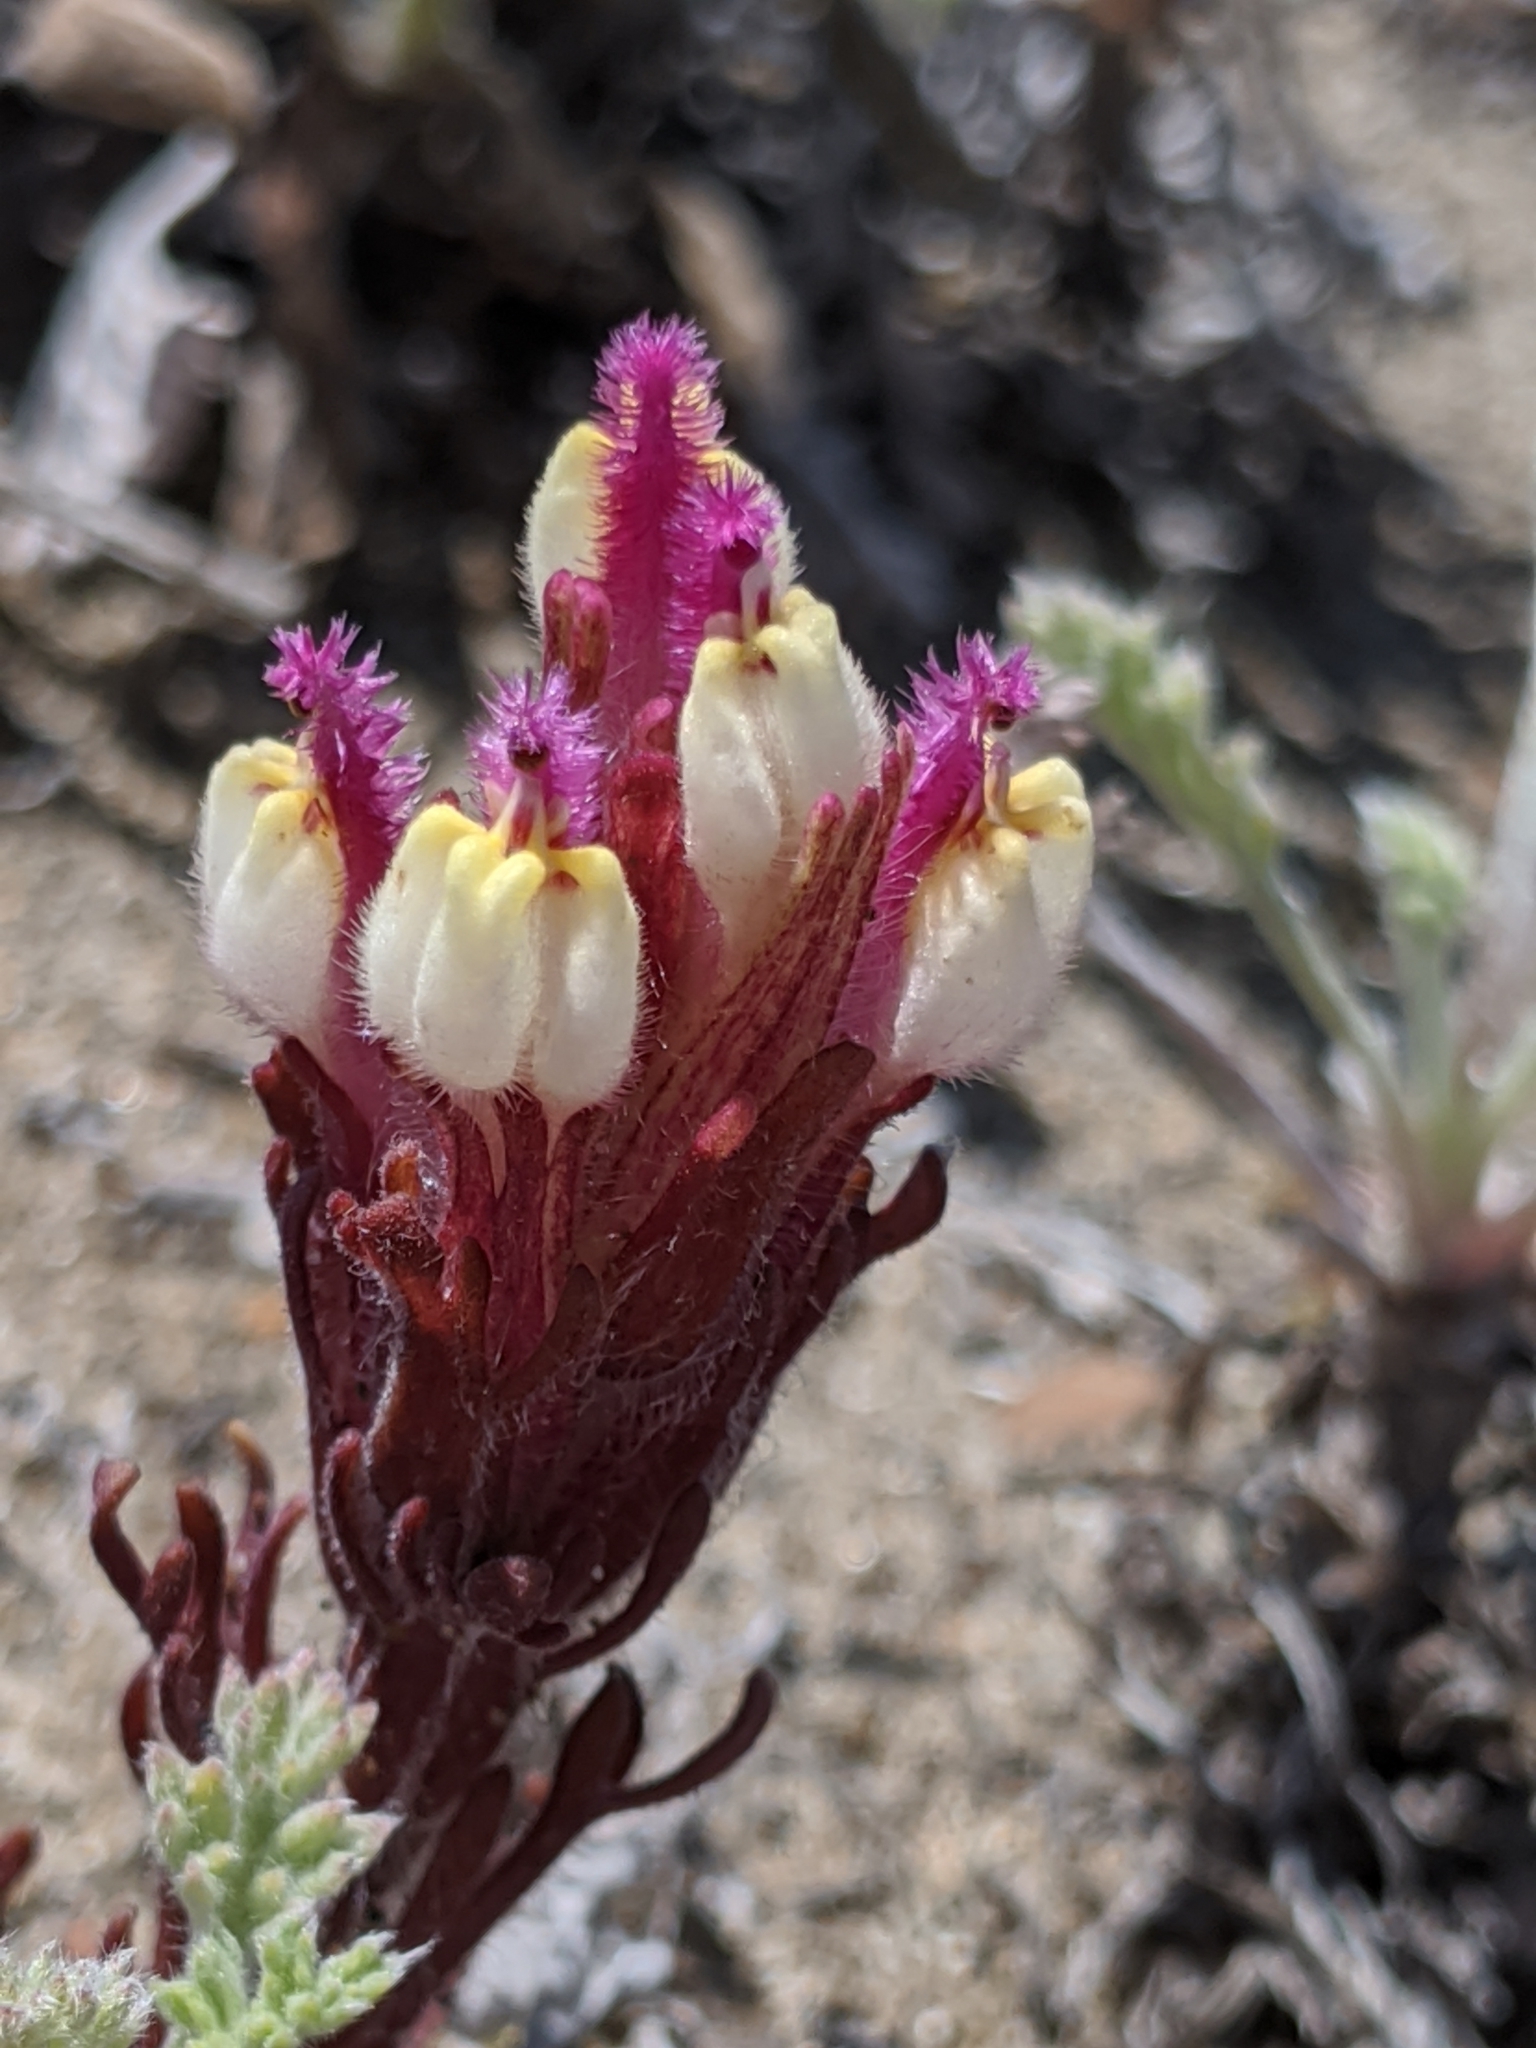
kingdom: Plantae
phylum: Tracheophyta
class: Magnoliopsida
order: Lamiales
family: Orobanchaceae
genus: Castilleja
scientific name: Castilleja exserta
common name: Purple owl-clover
